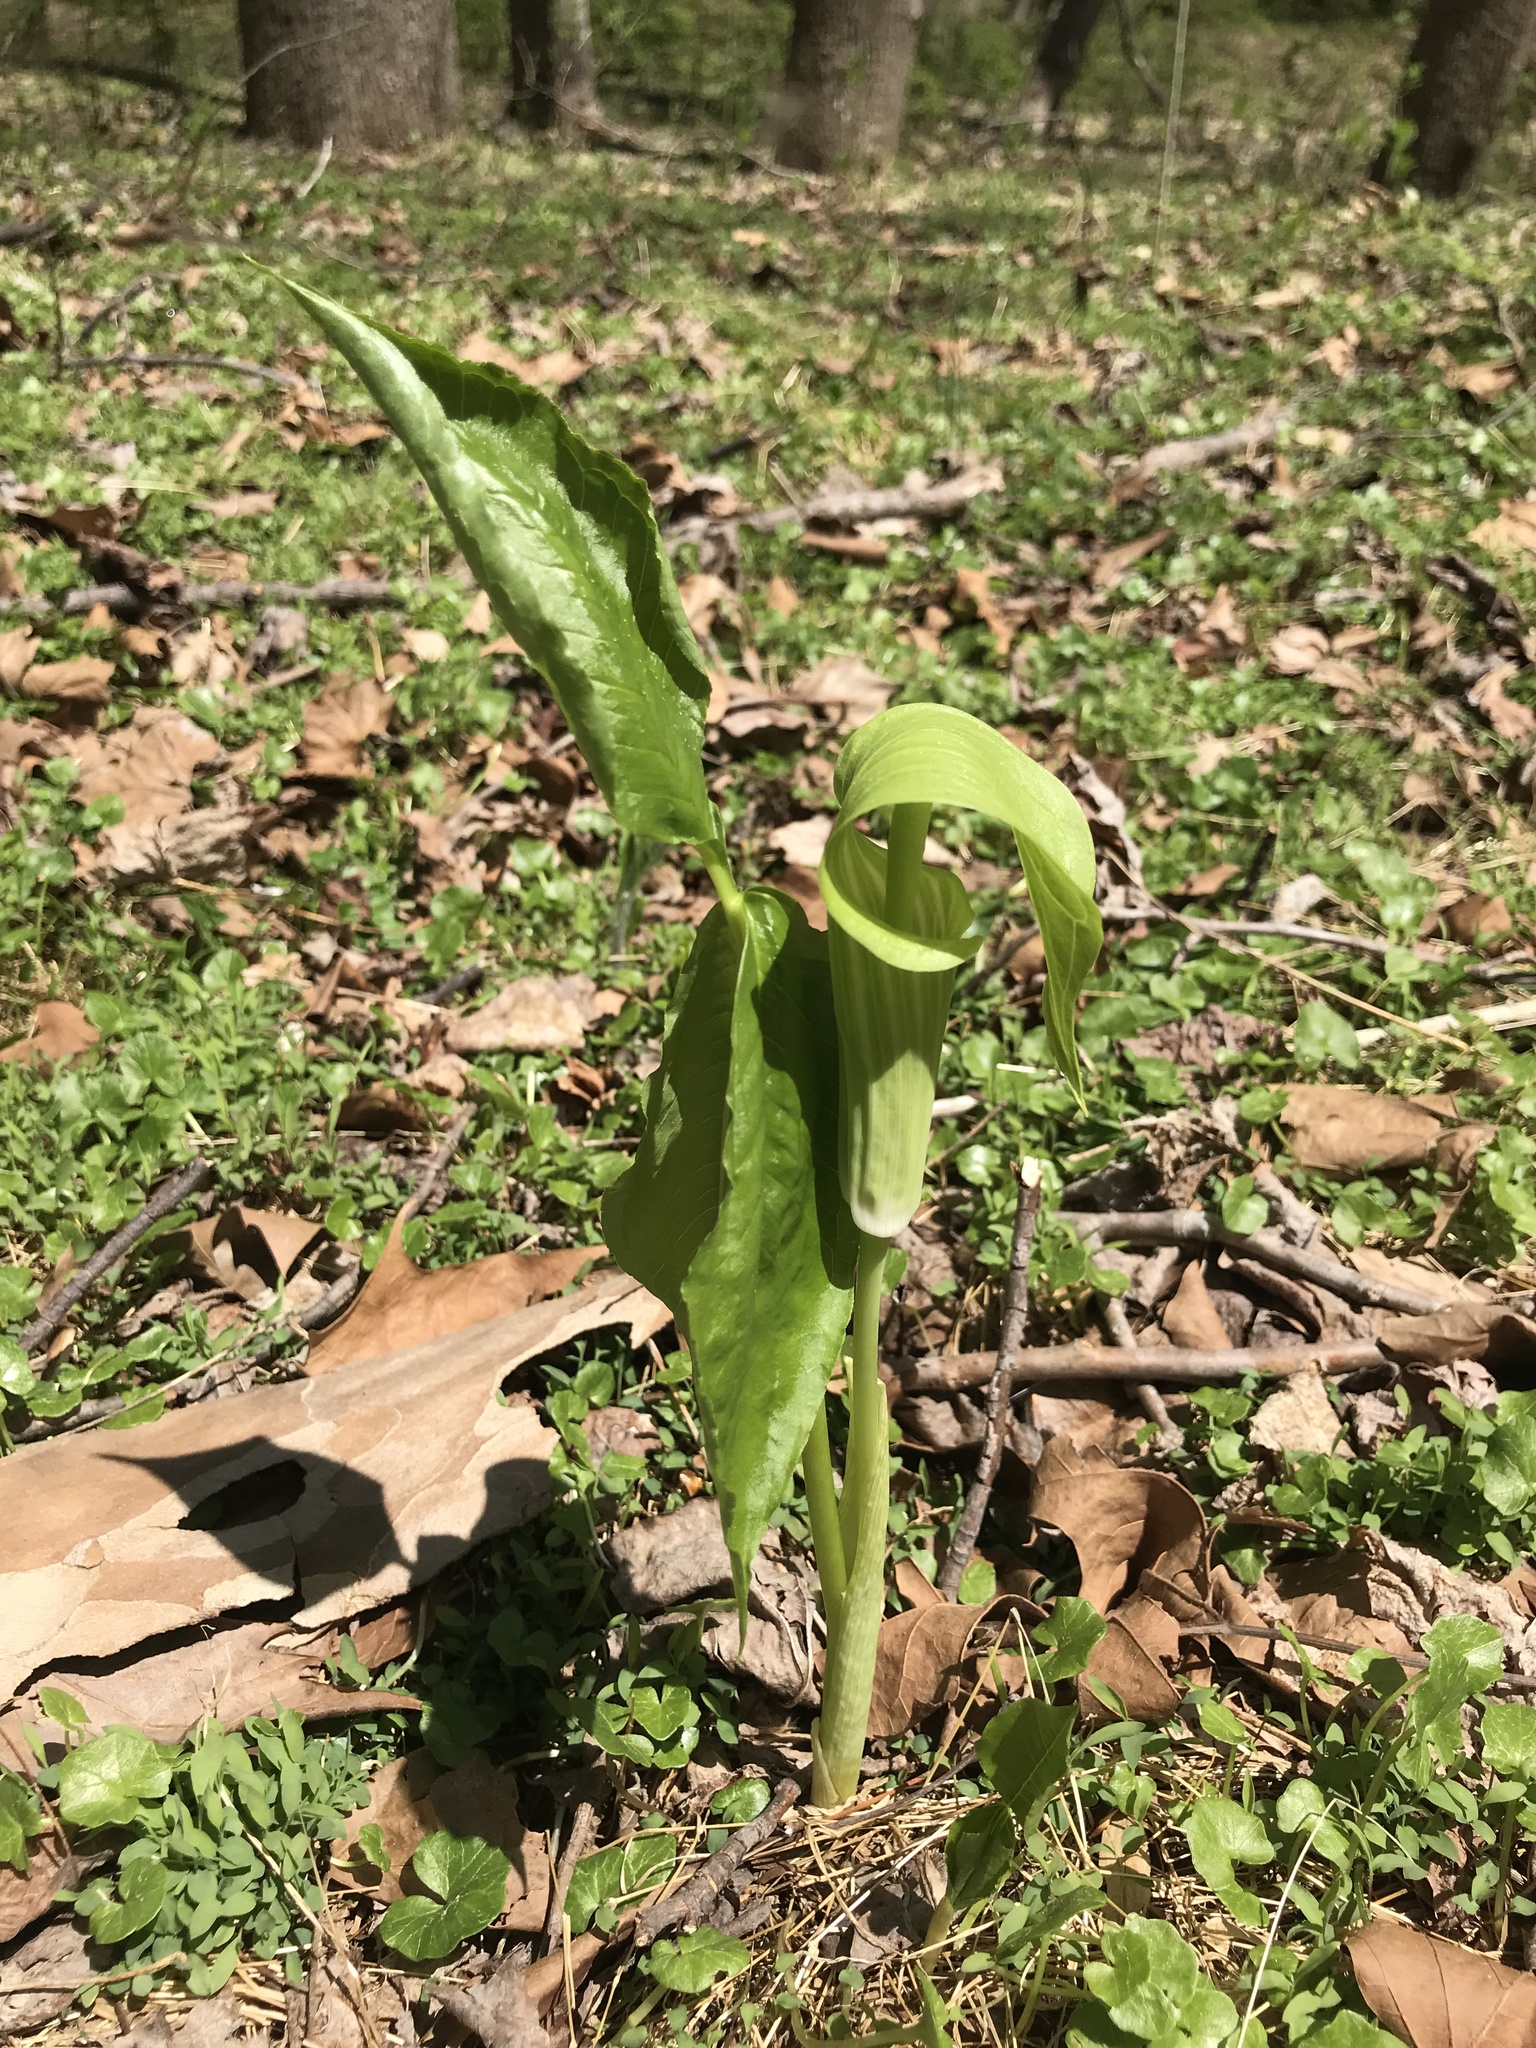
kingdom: Plantae
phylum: Tracheophyta
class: Liliopsida
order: Alismatales
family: Araceae
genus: Arisaema
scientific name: Arisaema triphyllum
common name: Jack-in-the-pulpit
